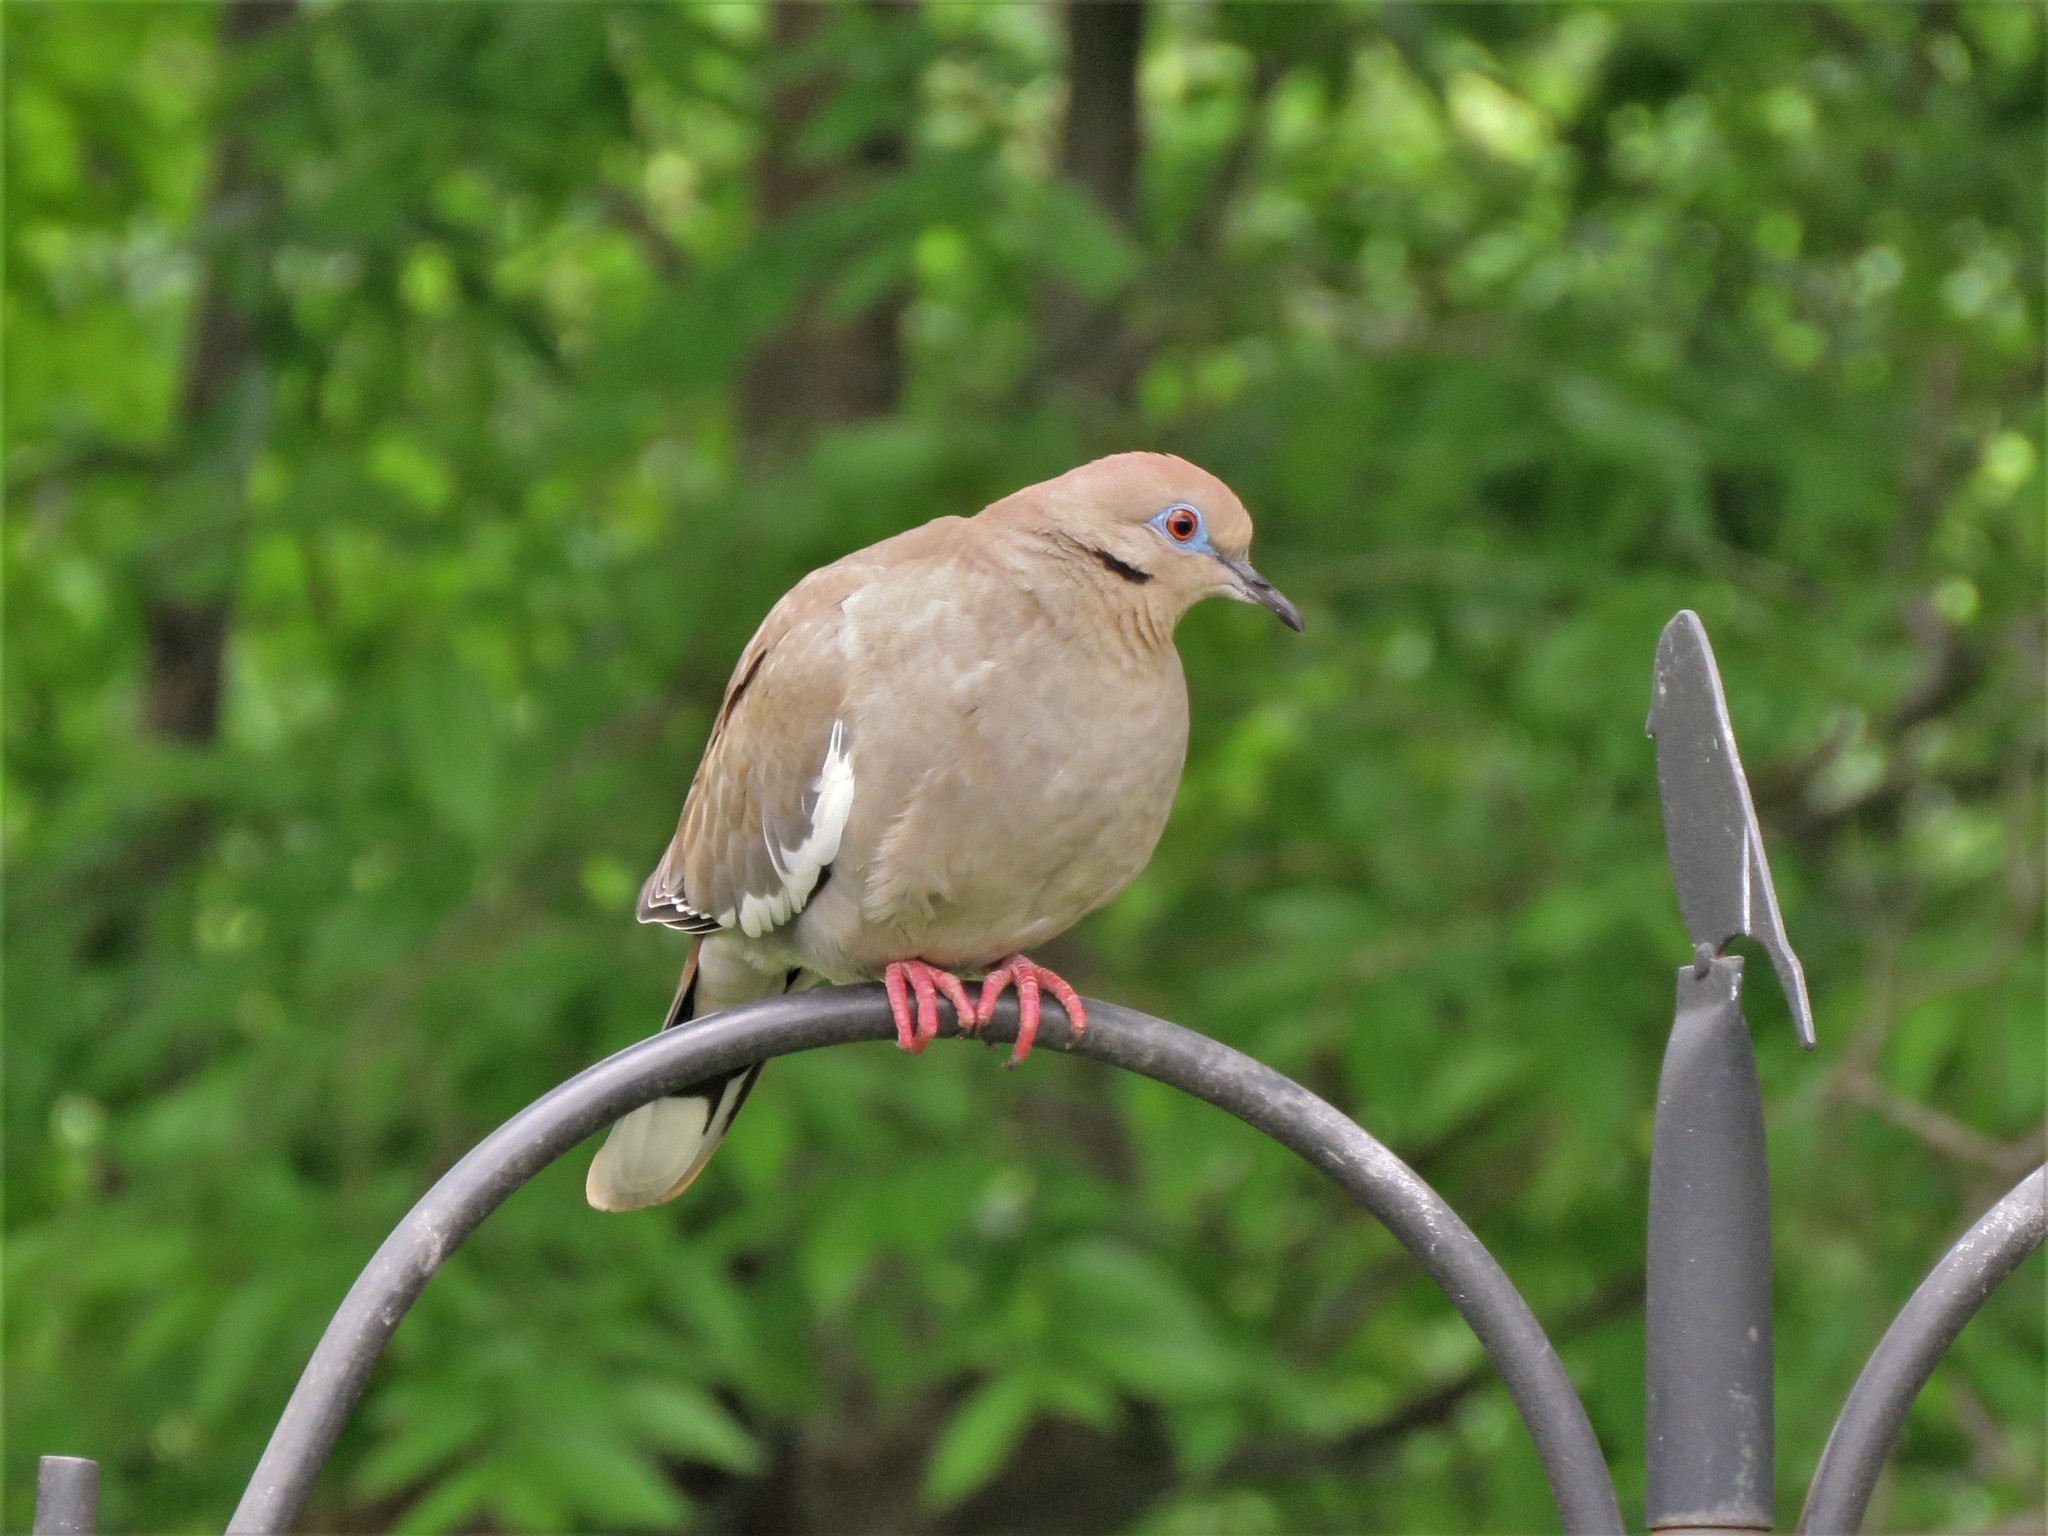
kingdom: Animalia
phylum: Chordata
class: Aves
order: Columbiformes
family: Columbidae
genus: Zenaida
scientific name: Zenaida asiatica
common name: White-winged dove
